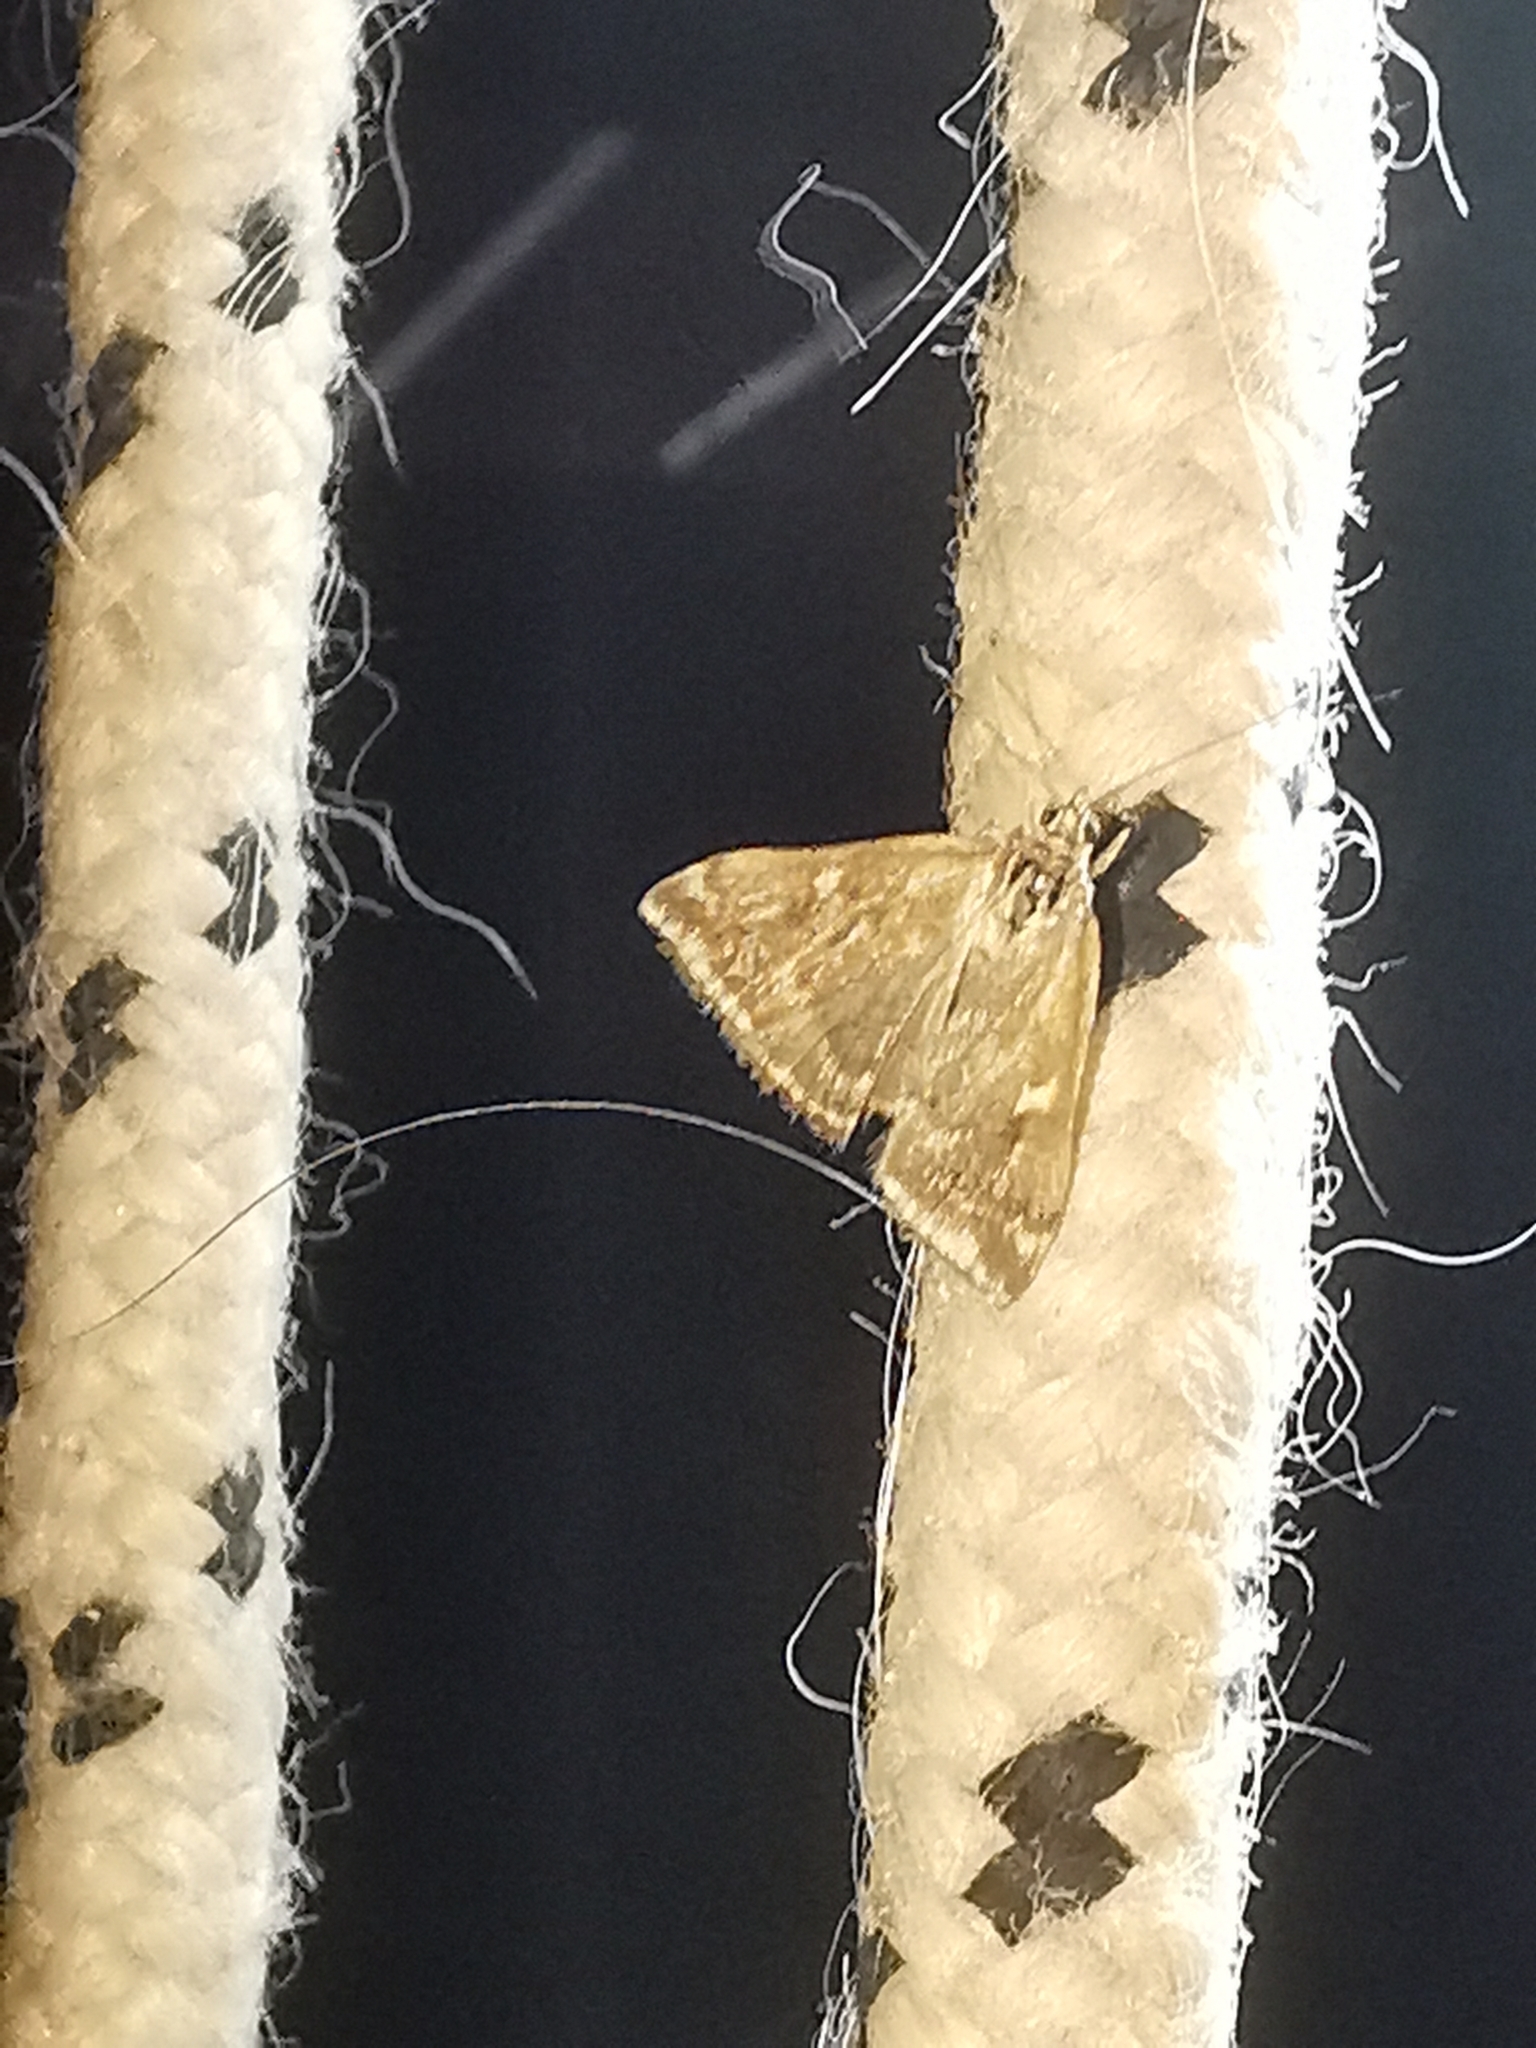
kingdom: Animalia
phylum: Arthropoda
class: Insecta
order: Lepidoptera
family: Crambidae
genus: Loxostege
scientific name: Loxostege sticticalis
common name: Crambid moth
